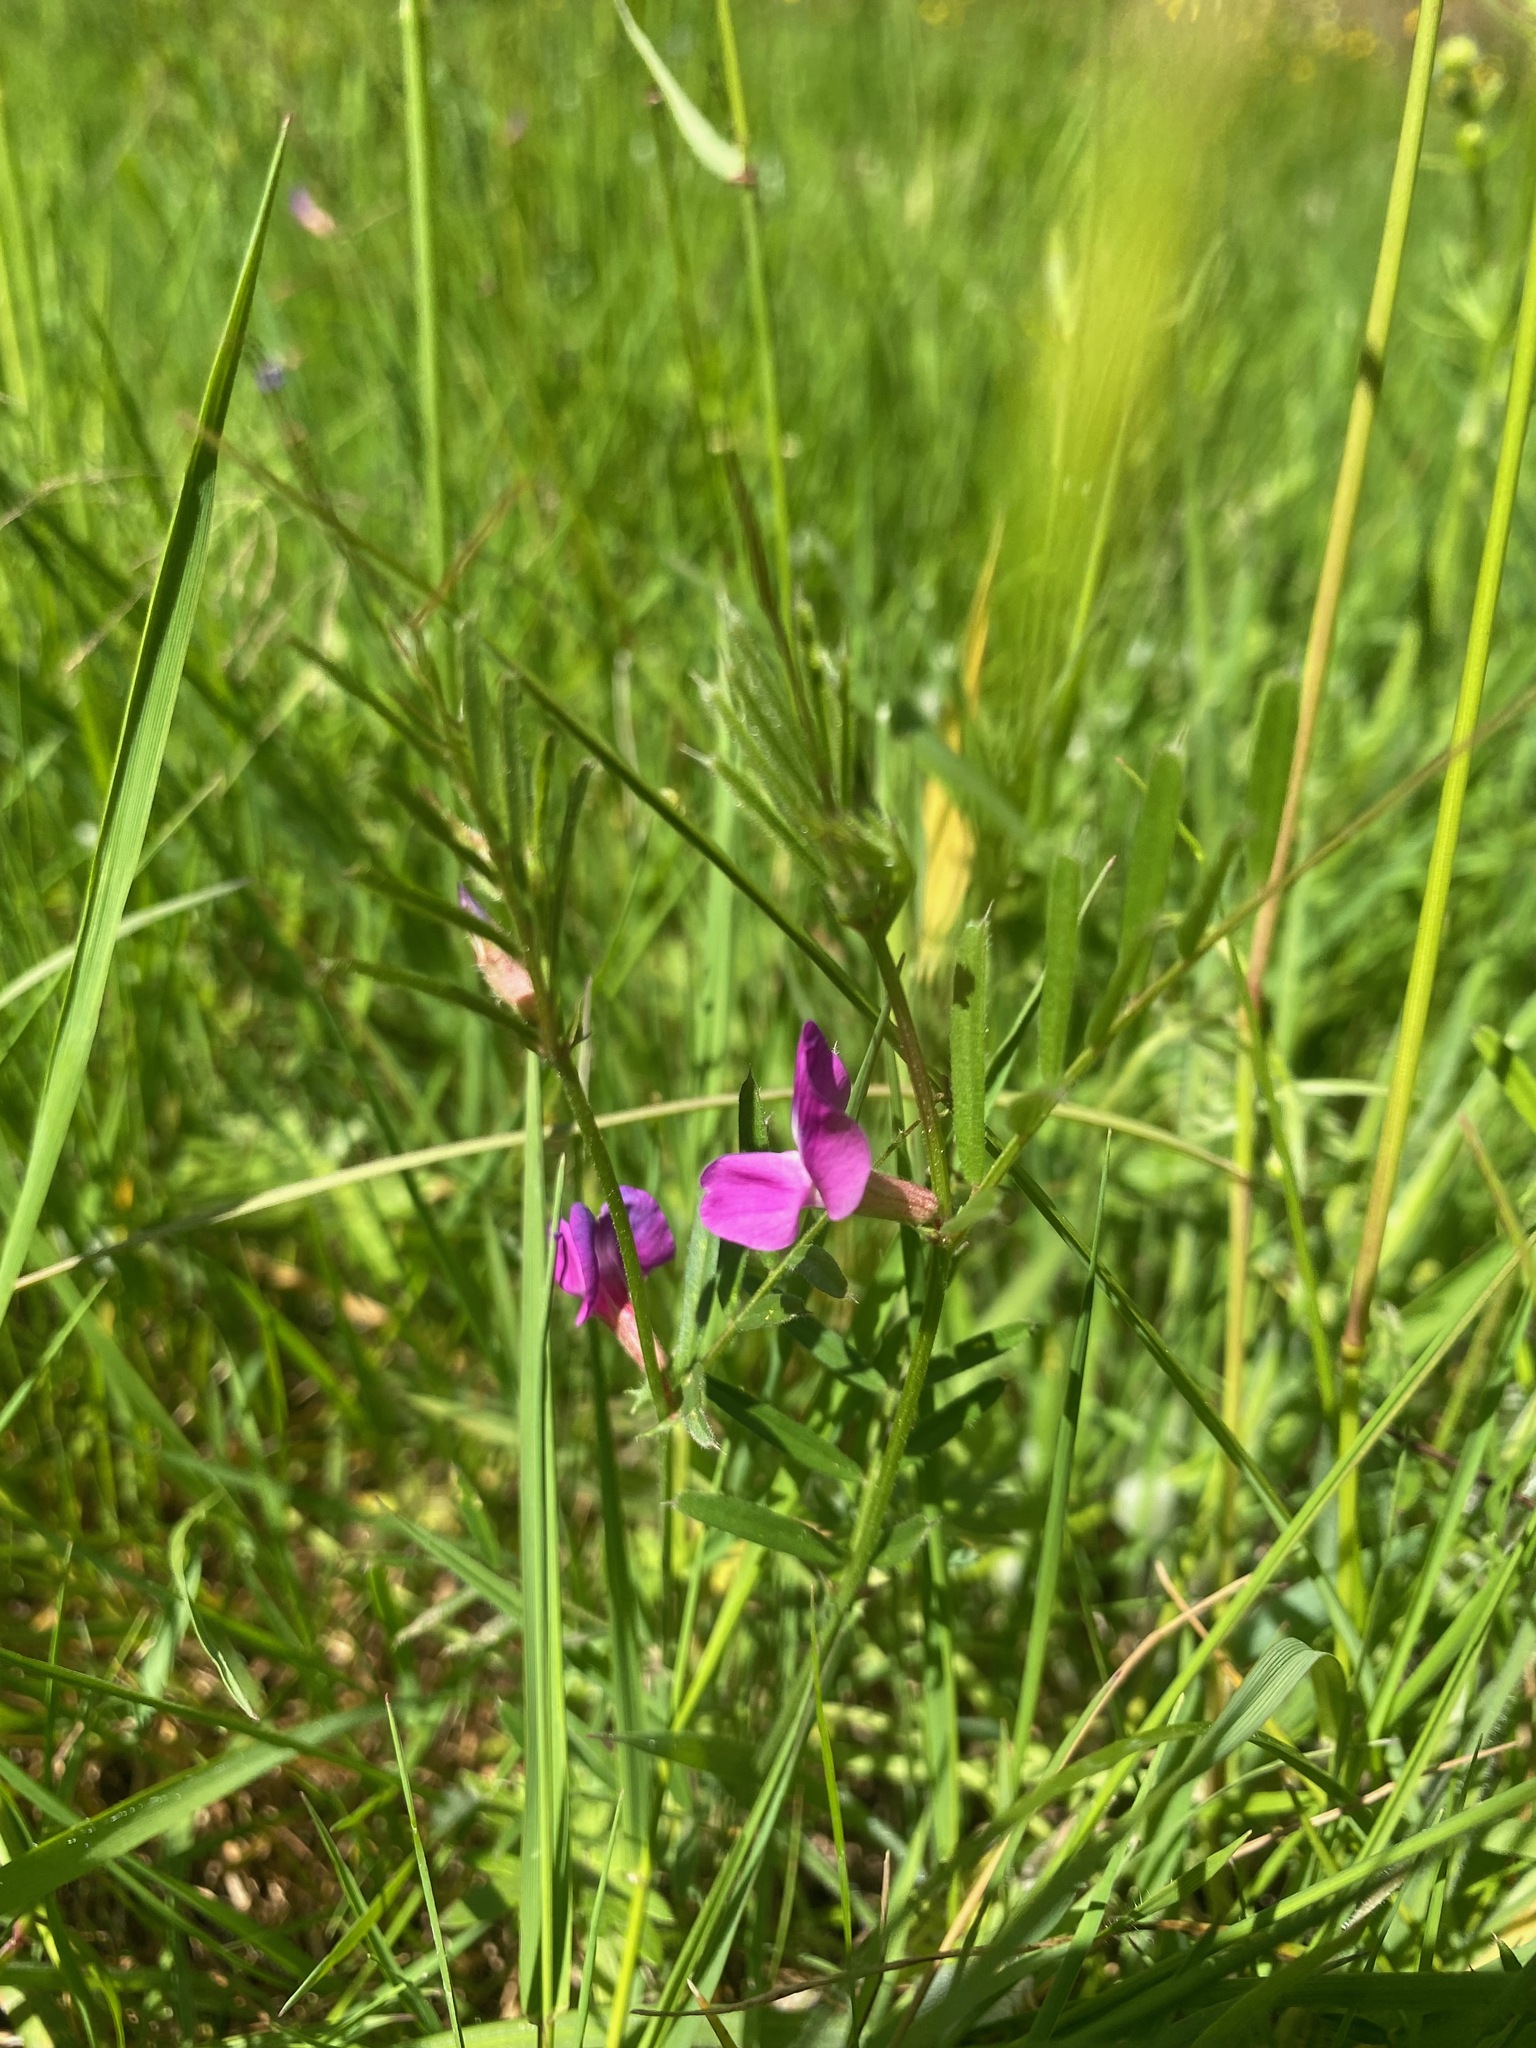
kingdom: Plantae
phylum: Tracheophyta
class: Magnoliopsida
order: Fabales
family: Fabaceae
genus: Vicia
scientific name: Vicia sativa
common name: Garden vetch
